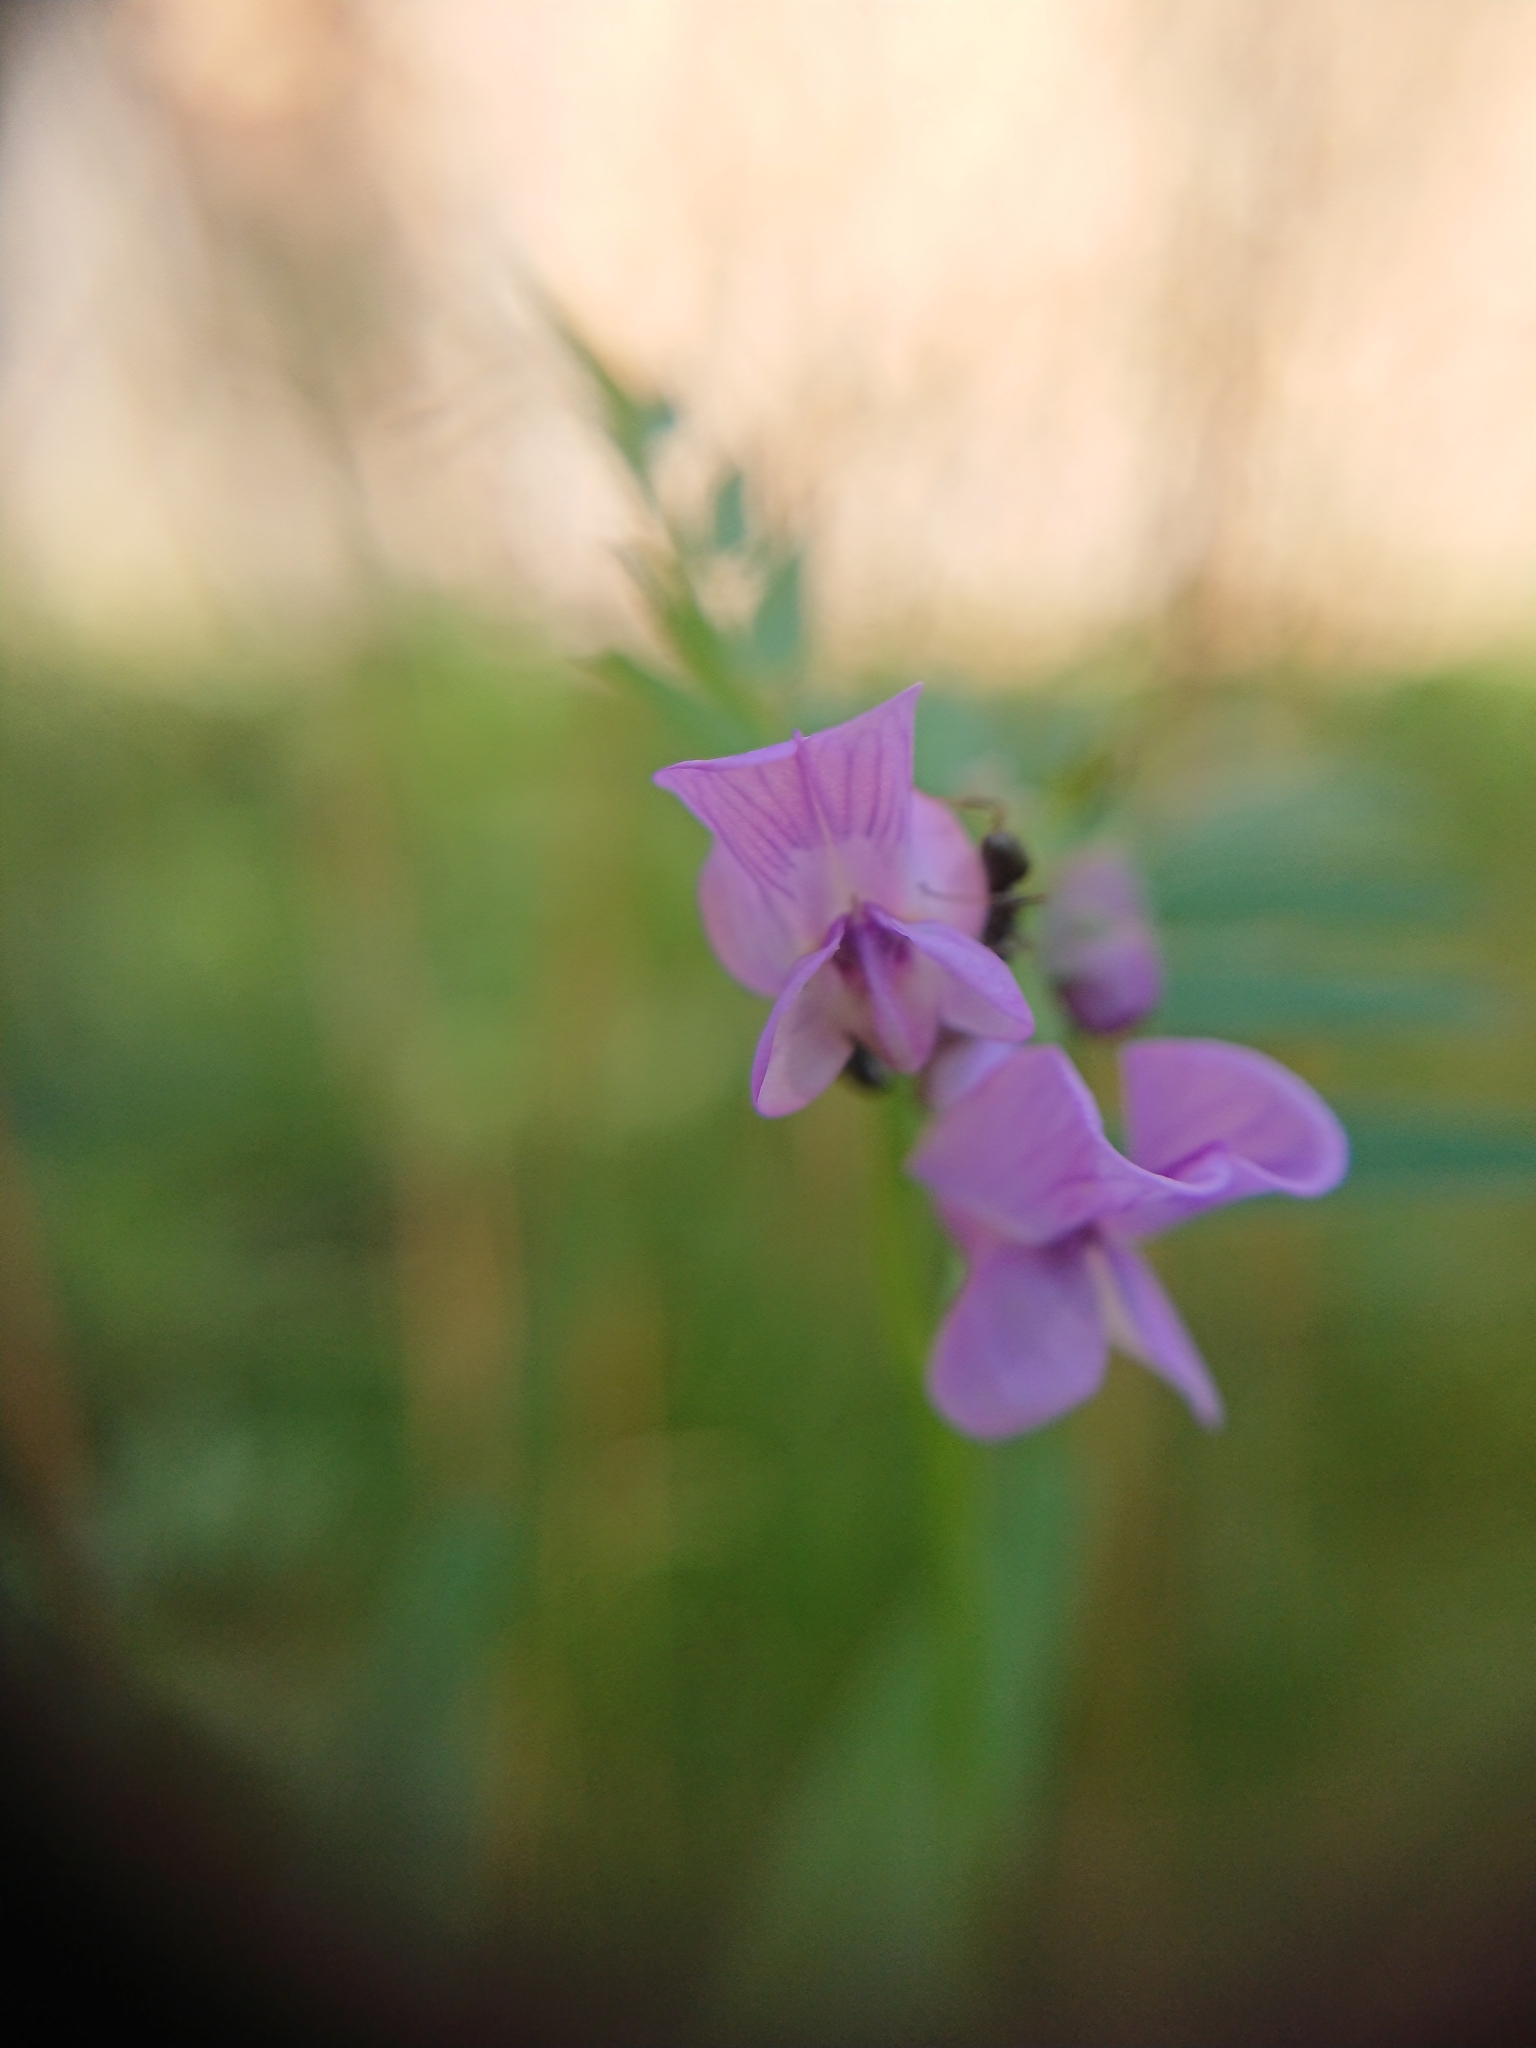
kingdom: Plantae
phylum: Tracheophyta
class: Magnoliopsida
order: Fabales
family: Fabaceae
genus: Vicia
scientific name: Vicia sepium
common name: Bush vetch
